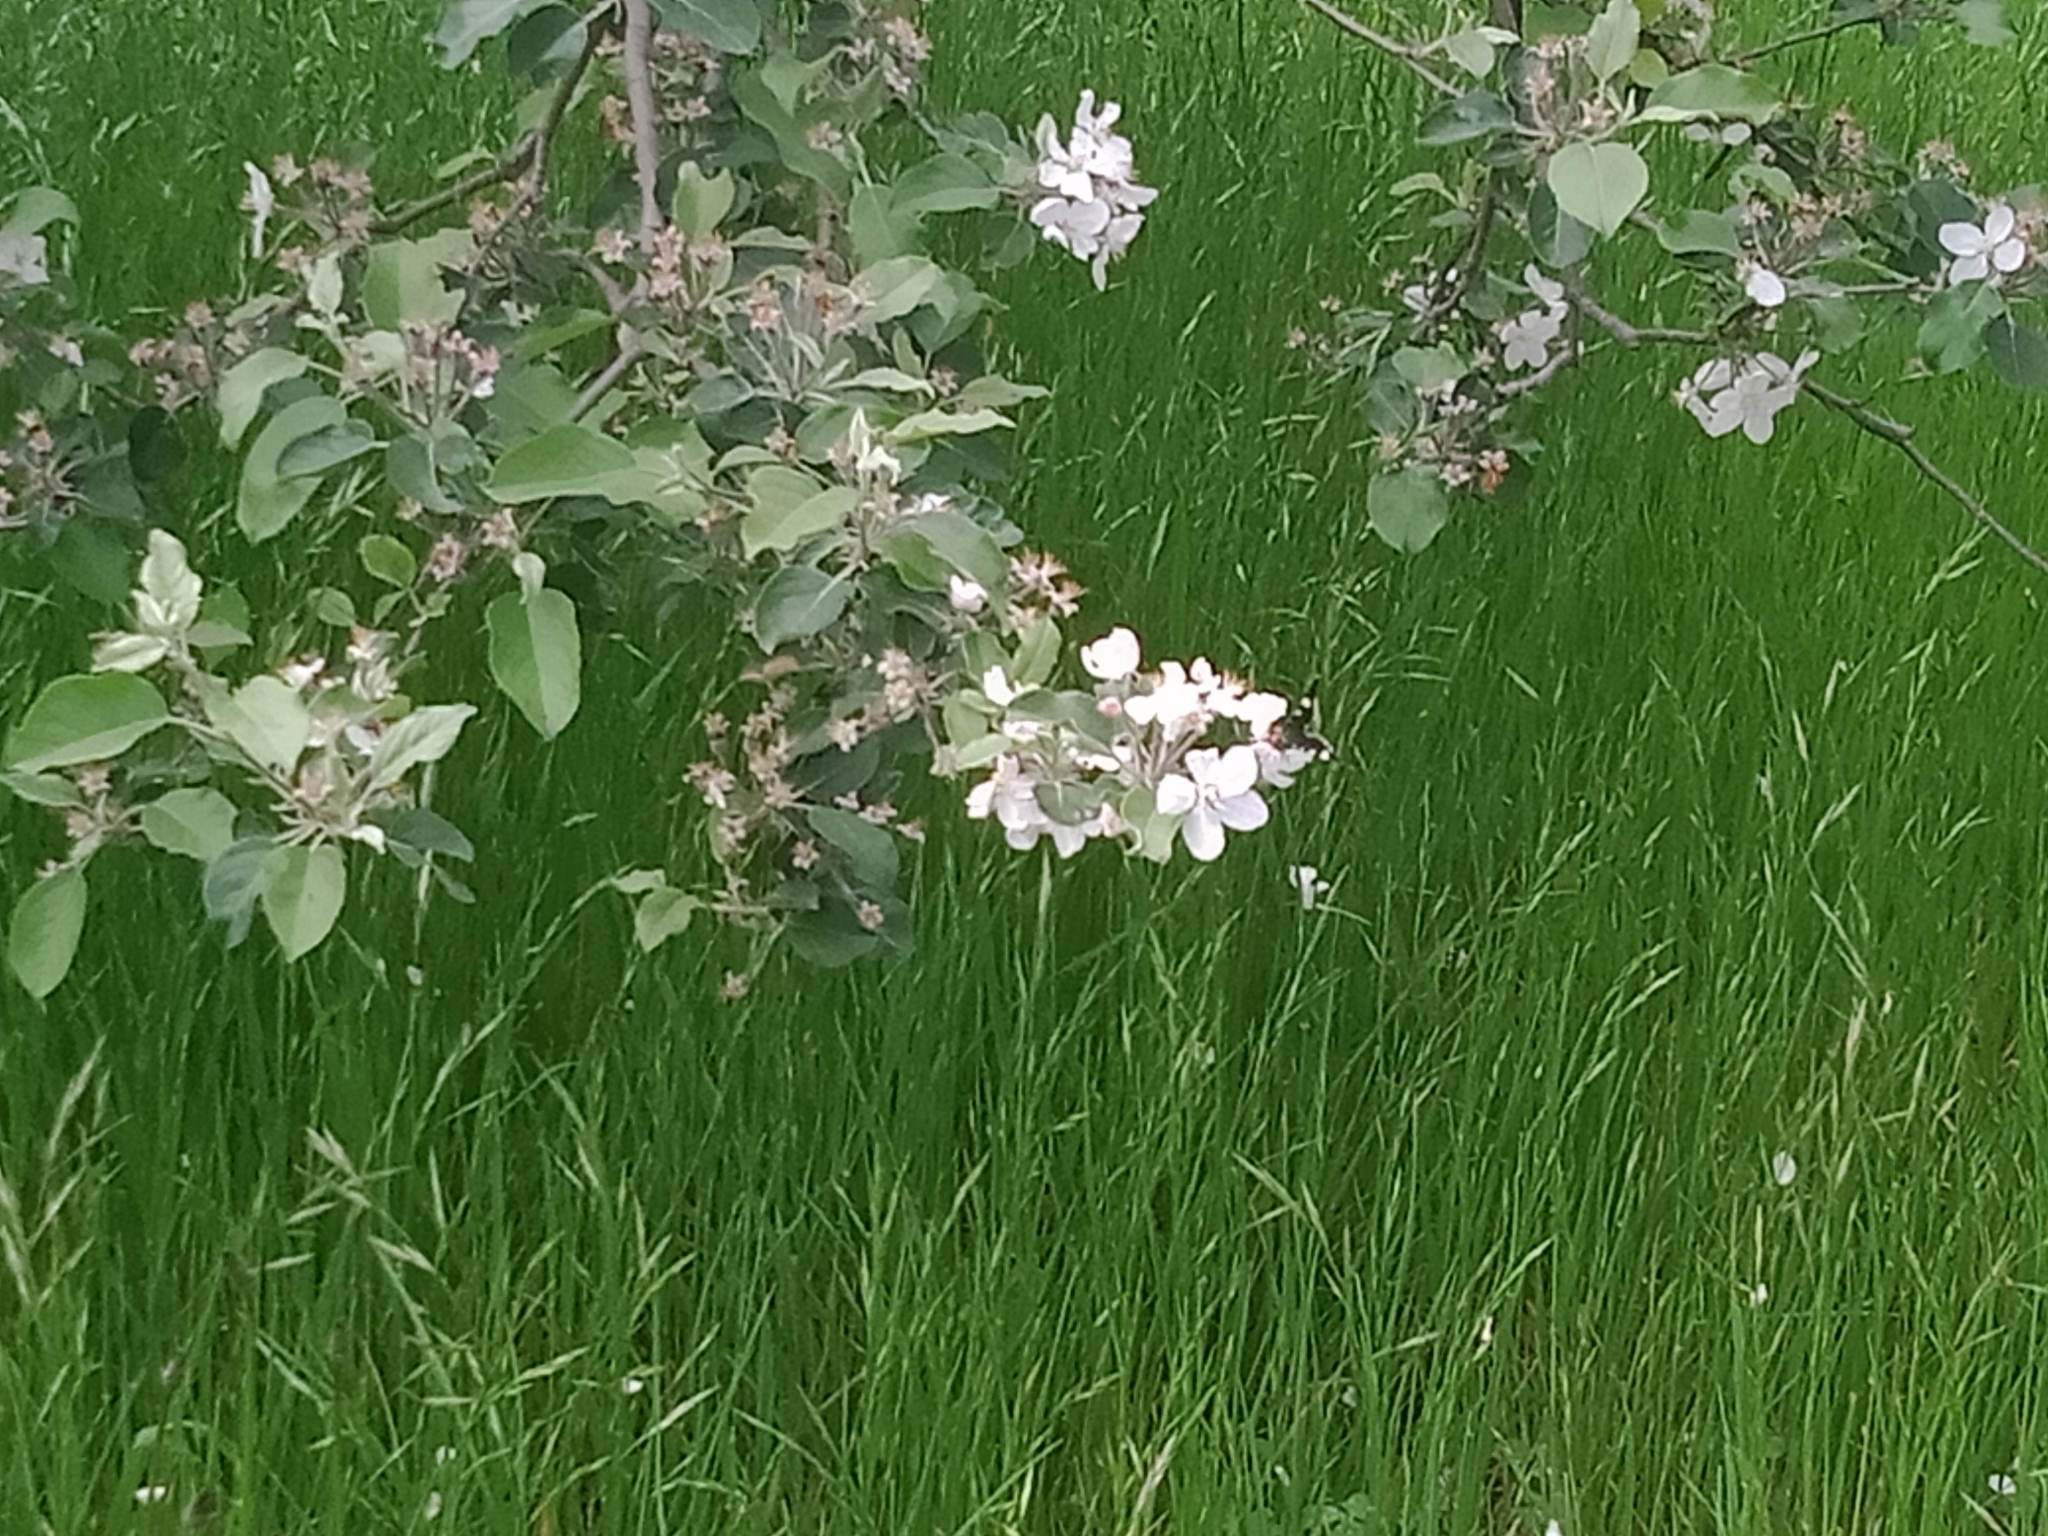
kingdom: Animalia
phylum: Arthropoda
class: Insecta
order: Lepidoptera
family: Noctuidae
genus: Phalaenoides
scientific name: Phalaenoides glycinae
